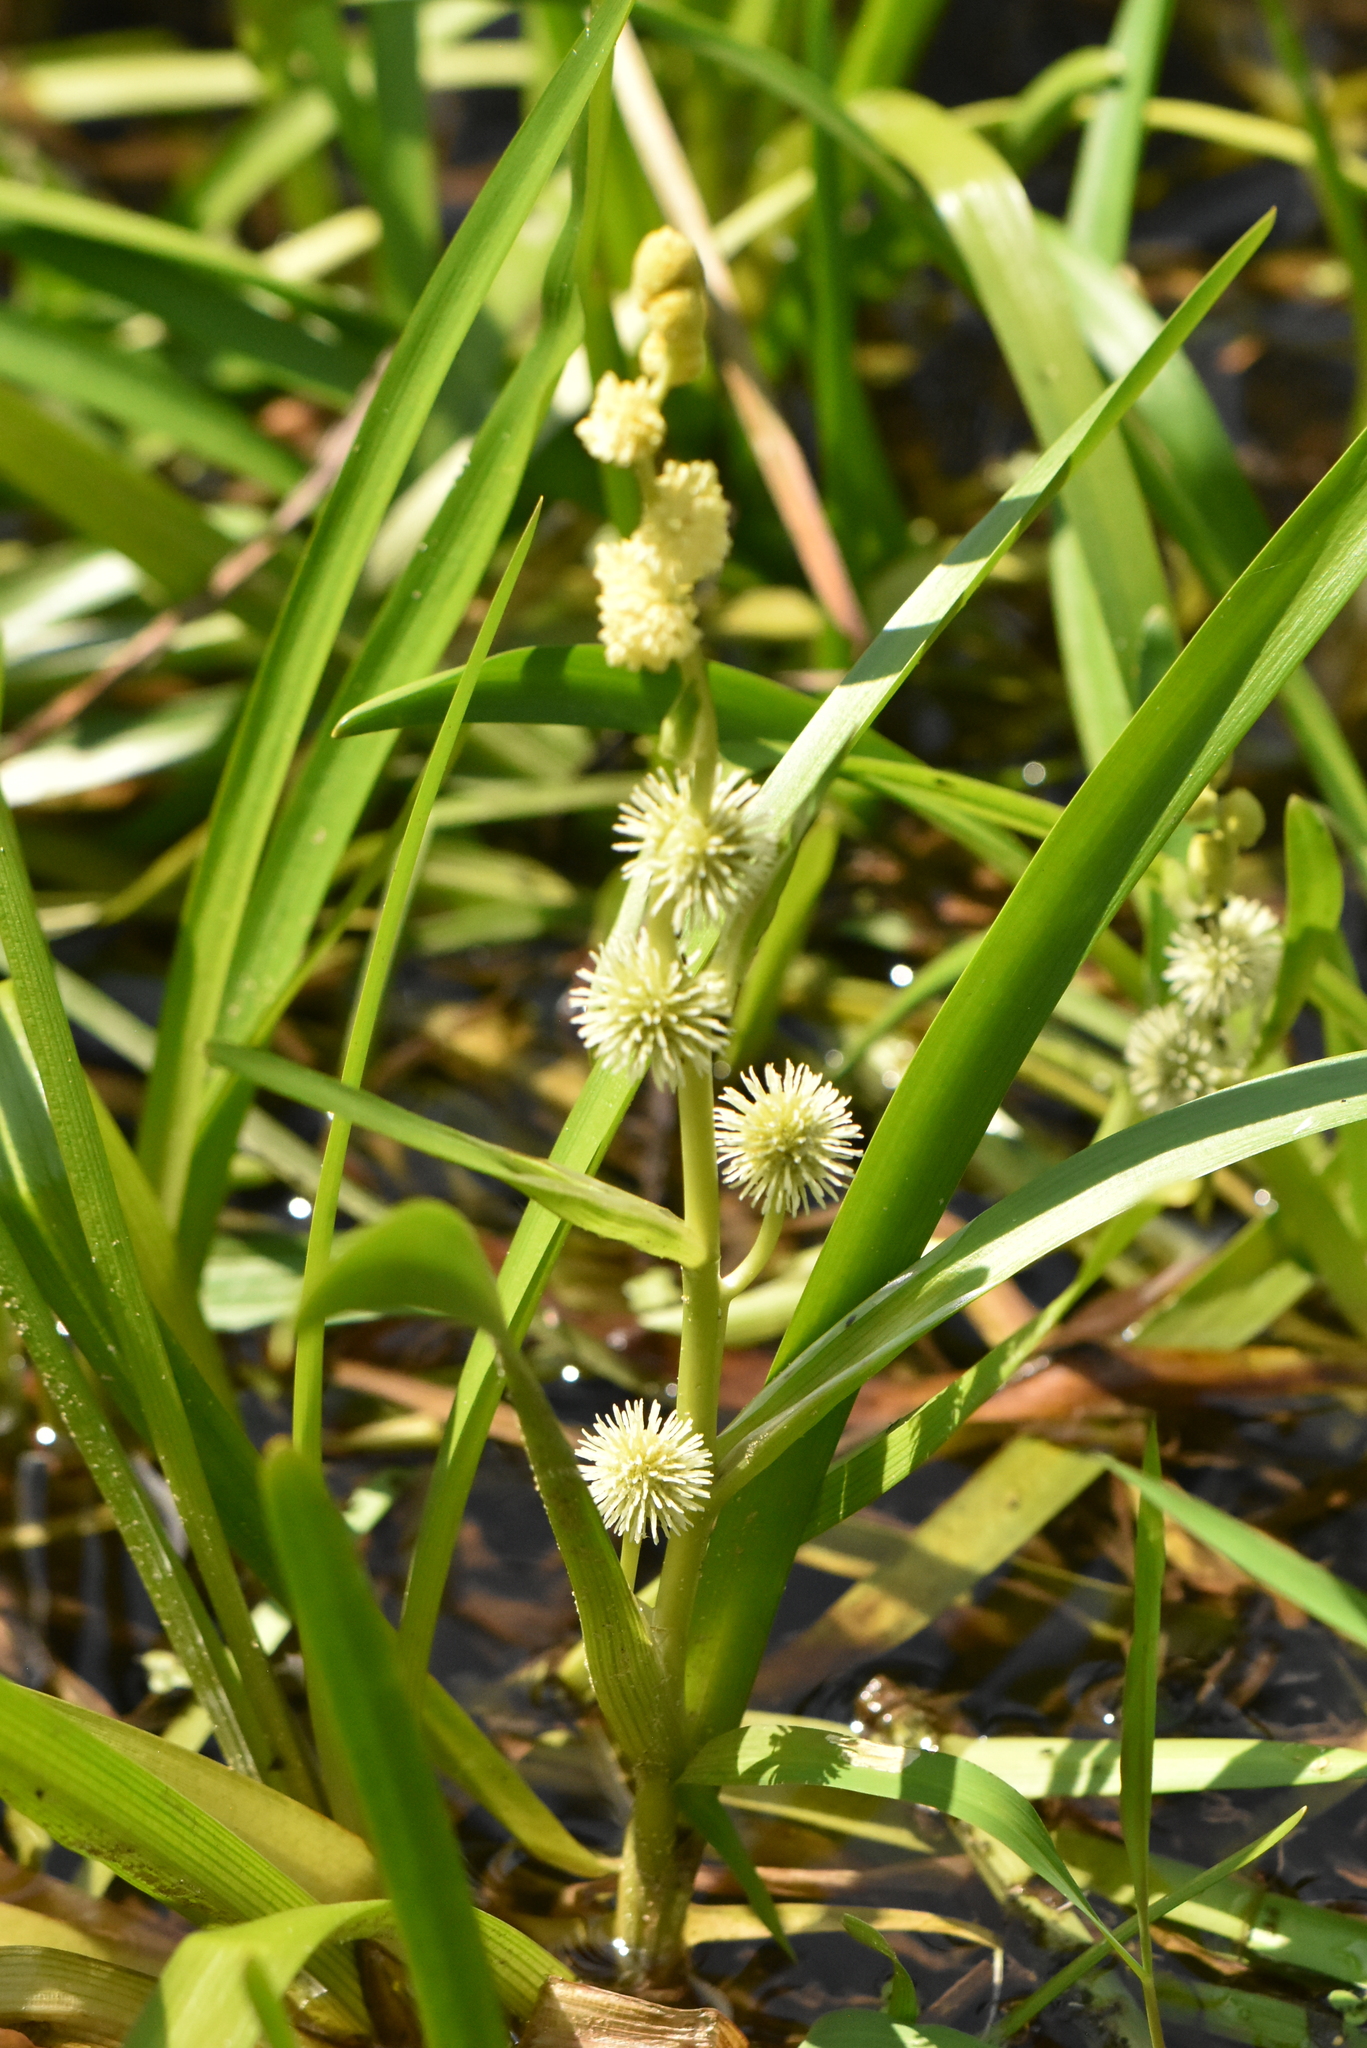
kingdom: Plantae
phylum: Tracheophyta
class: Liliopsida
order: Poales
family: Typhaceae
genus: Sparganium
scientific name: Sparganium emersum
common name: Unbranched bur-reed
